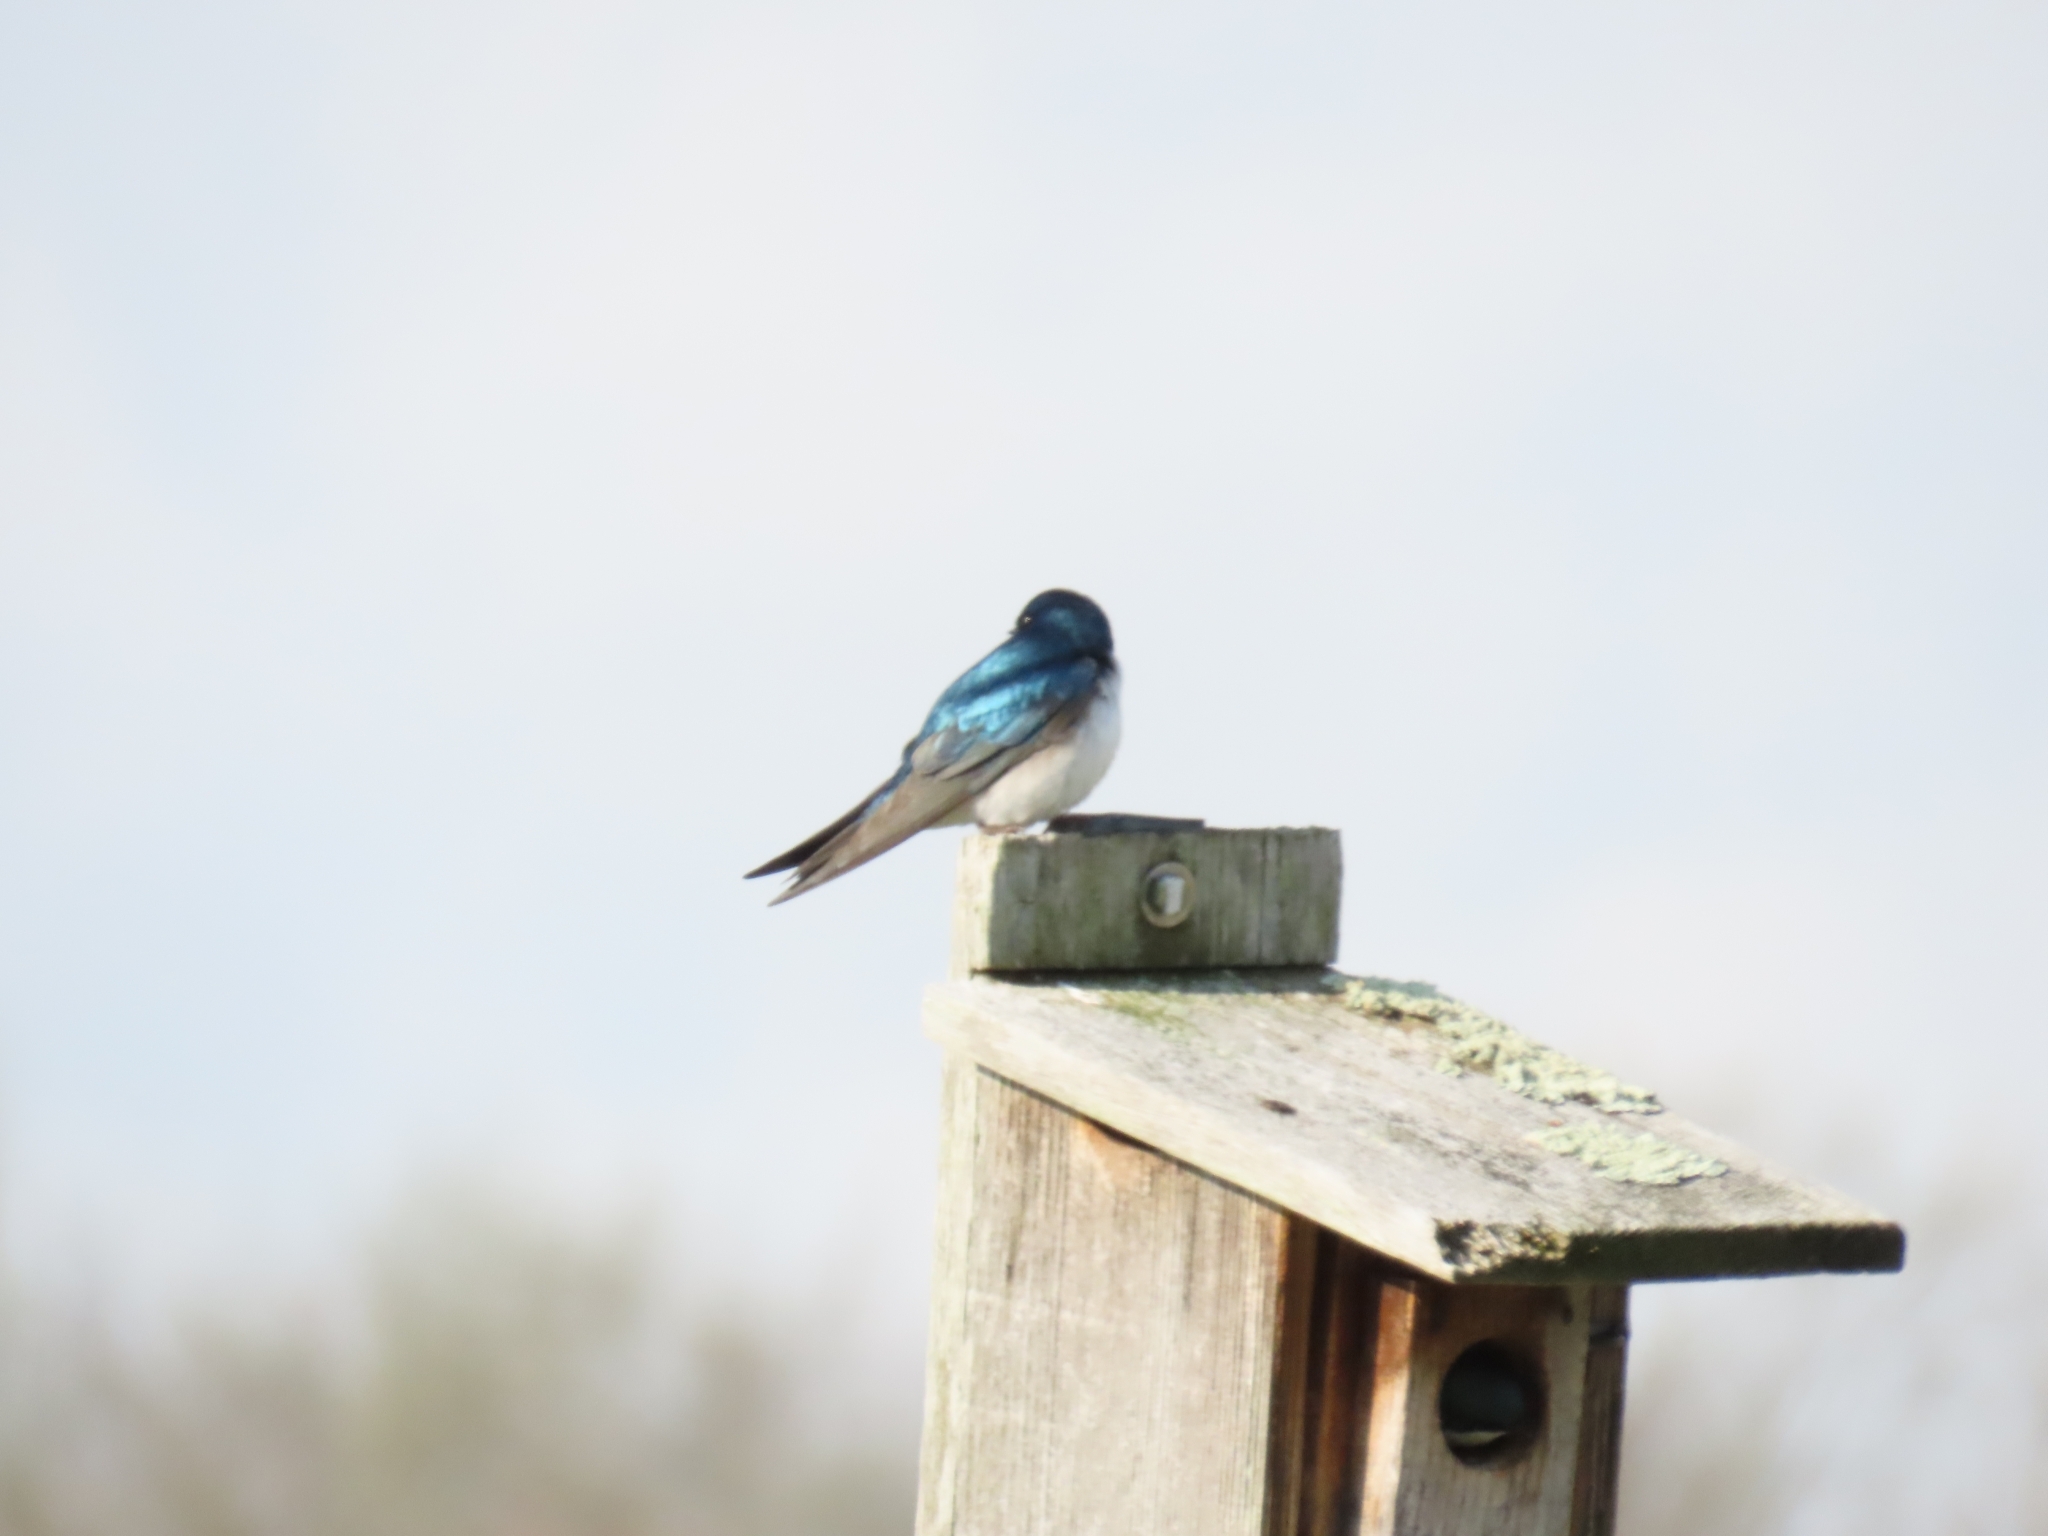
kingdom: Animalia
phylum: Chordata
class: Aves
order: Passeriformes
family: Hirundinidae
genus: Tachycineta
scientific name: Tachycineta bicolor
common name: Tree swallow
